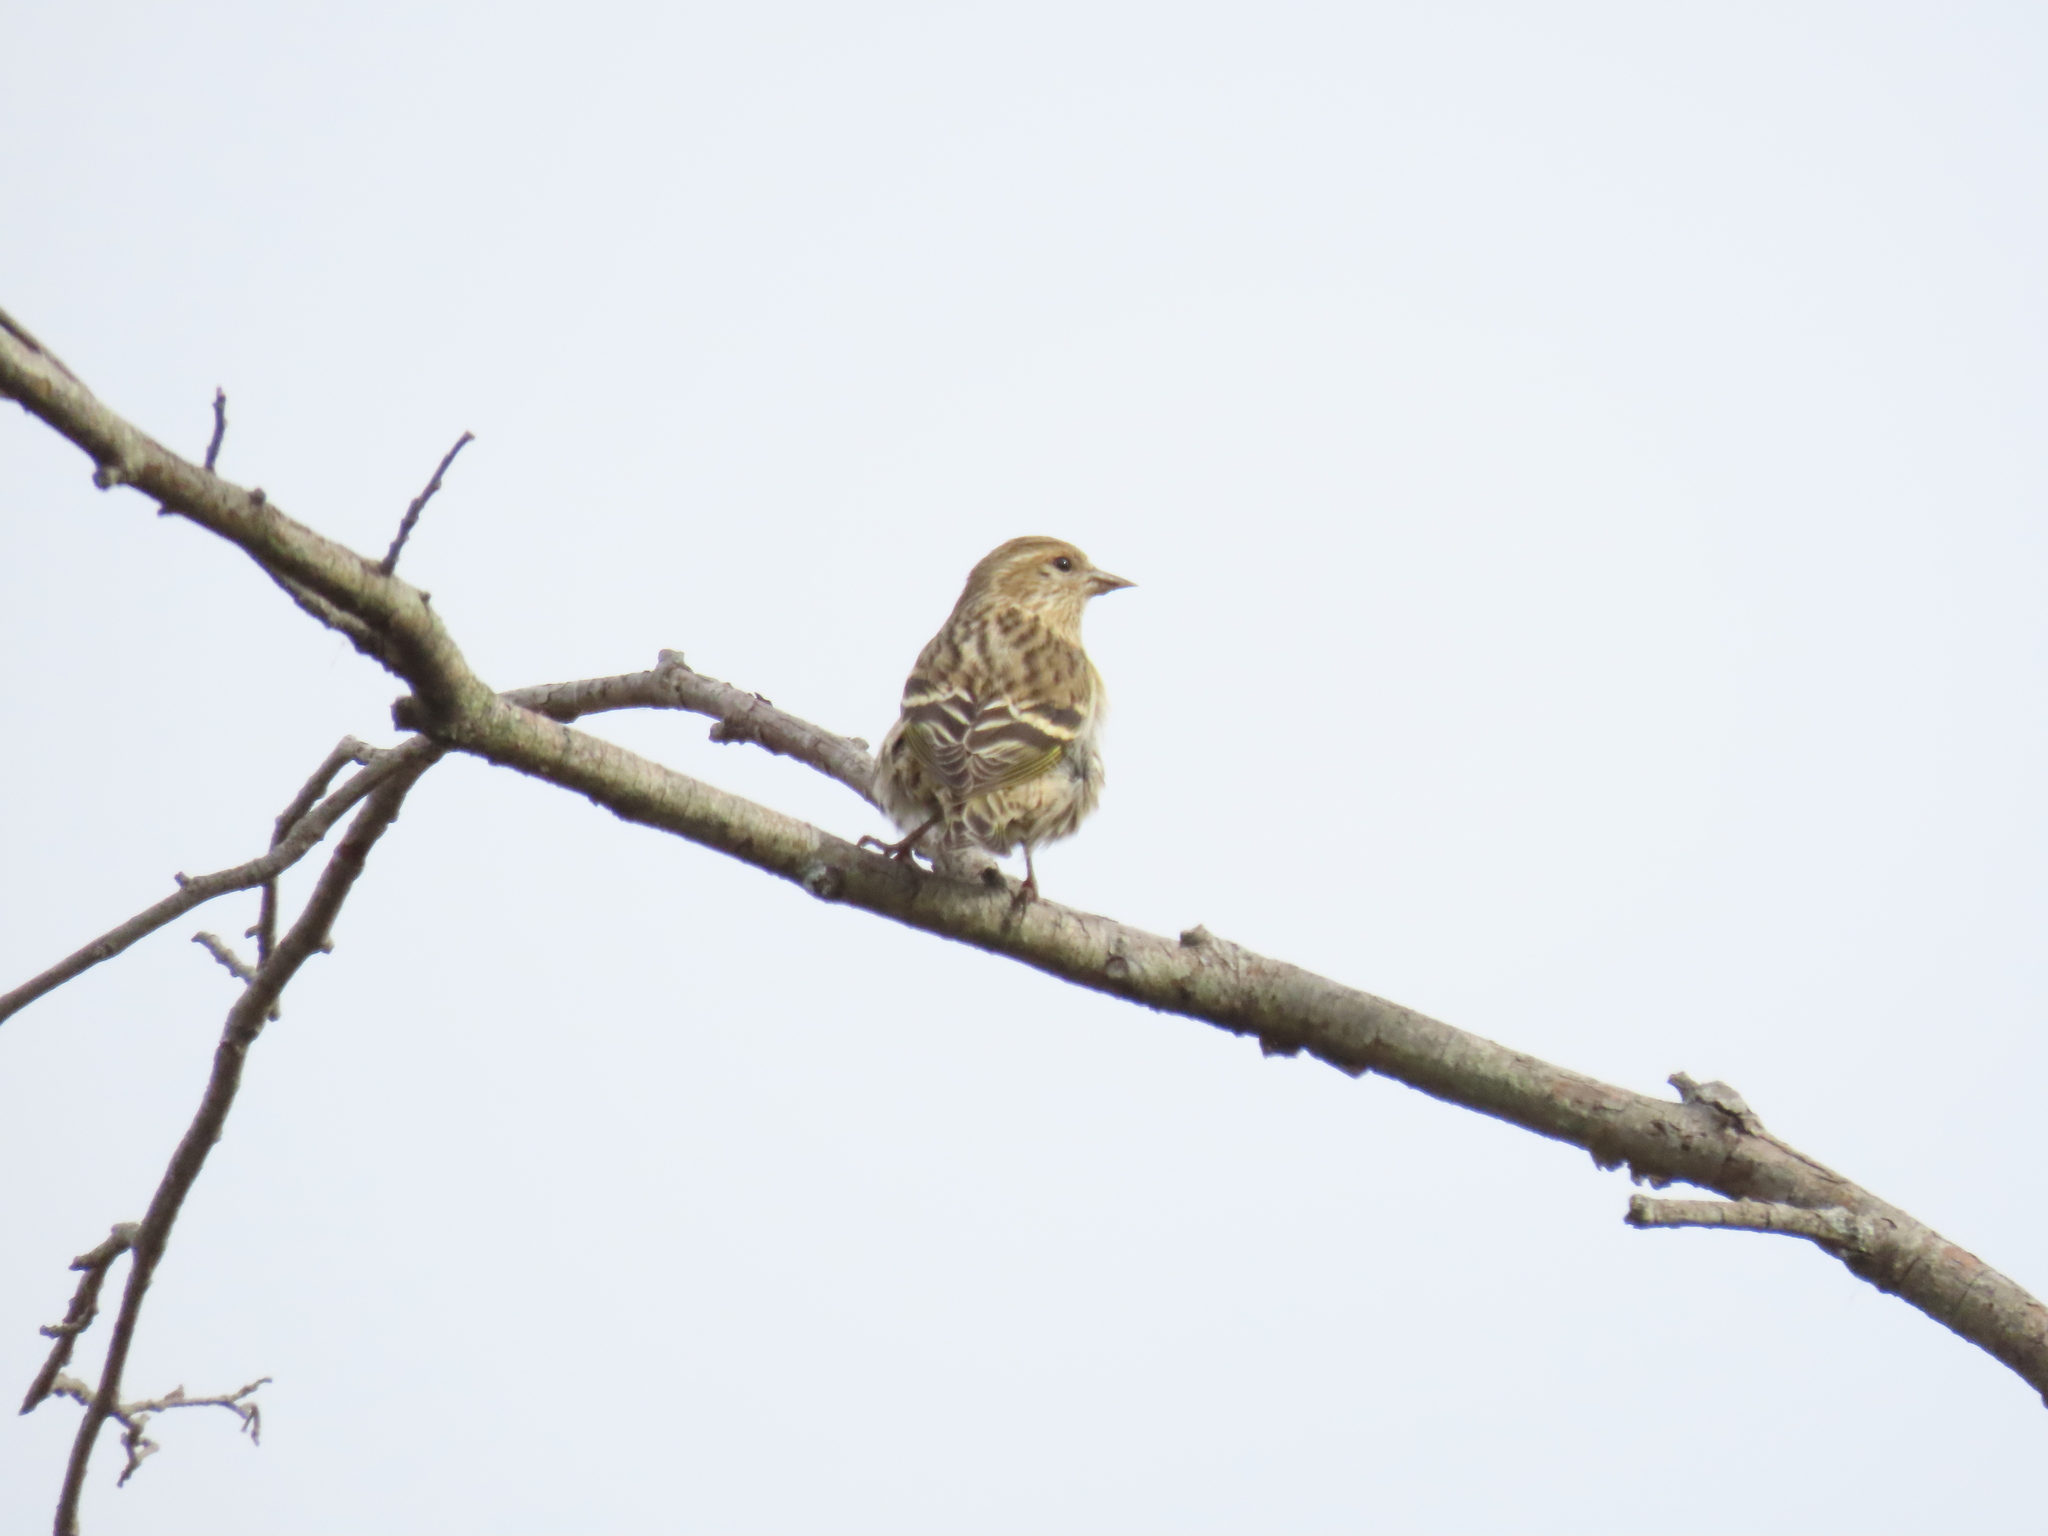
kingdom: Animalia
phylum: Chordata
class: Aves
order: Passeriformes
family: Fringillidae
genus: Spinus
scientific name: Spinus pinus
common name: Pine siskin
